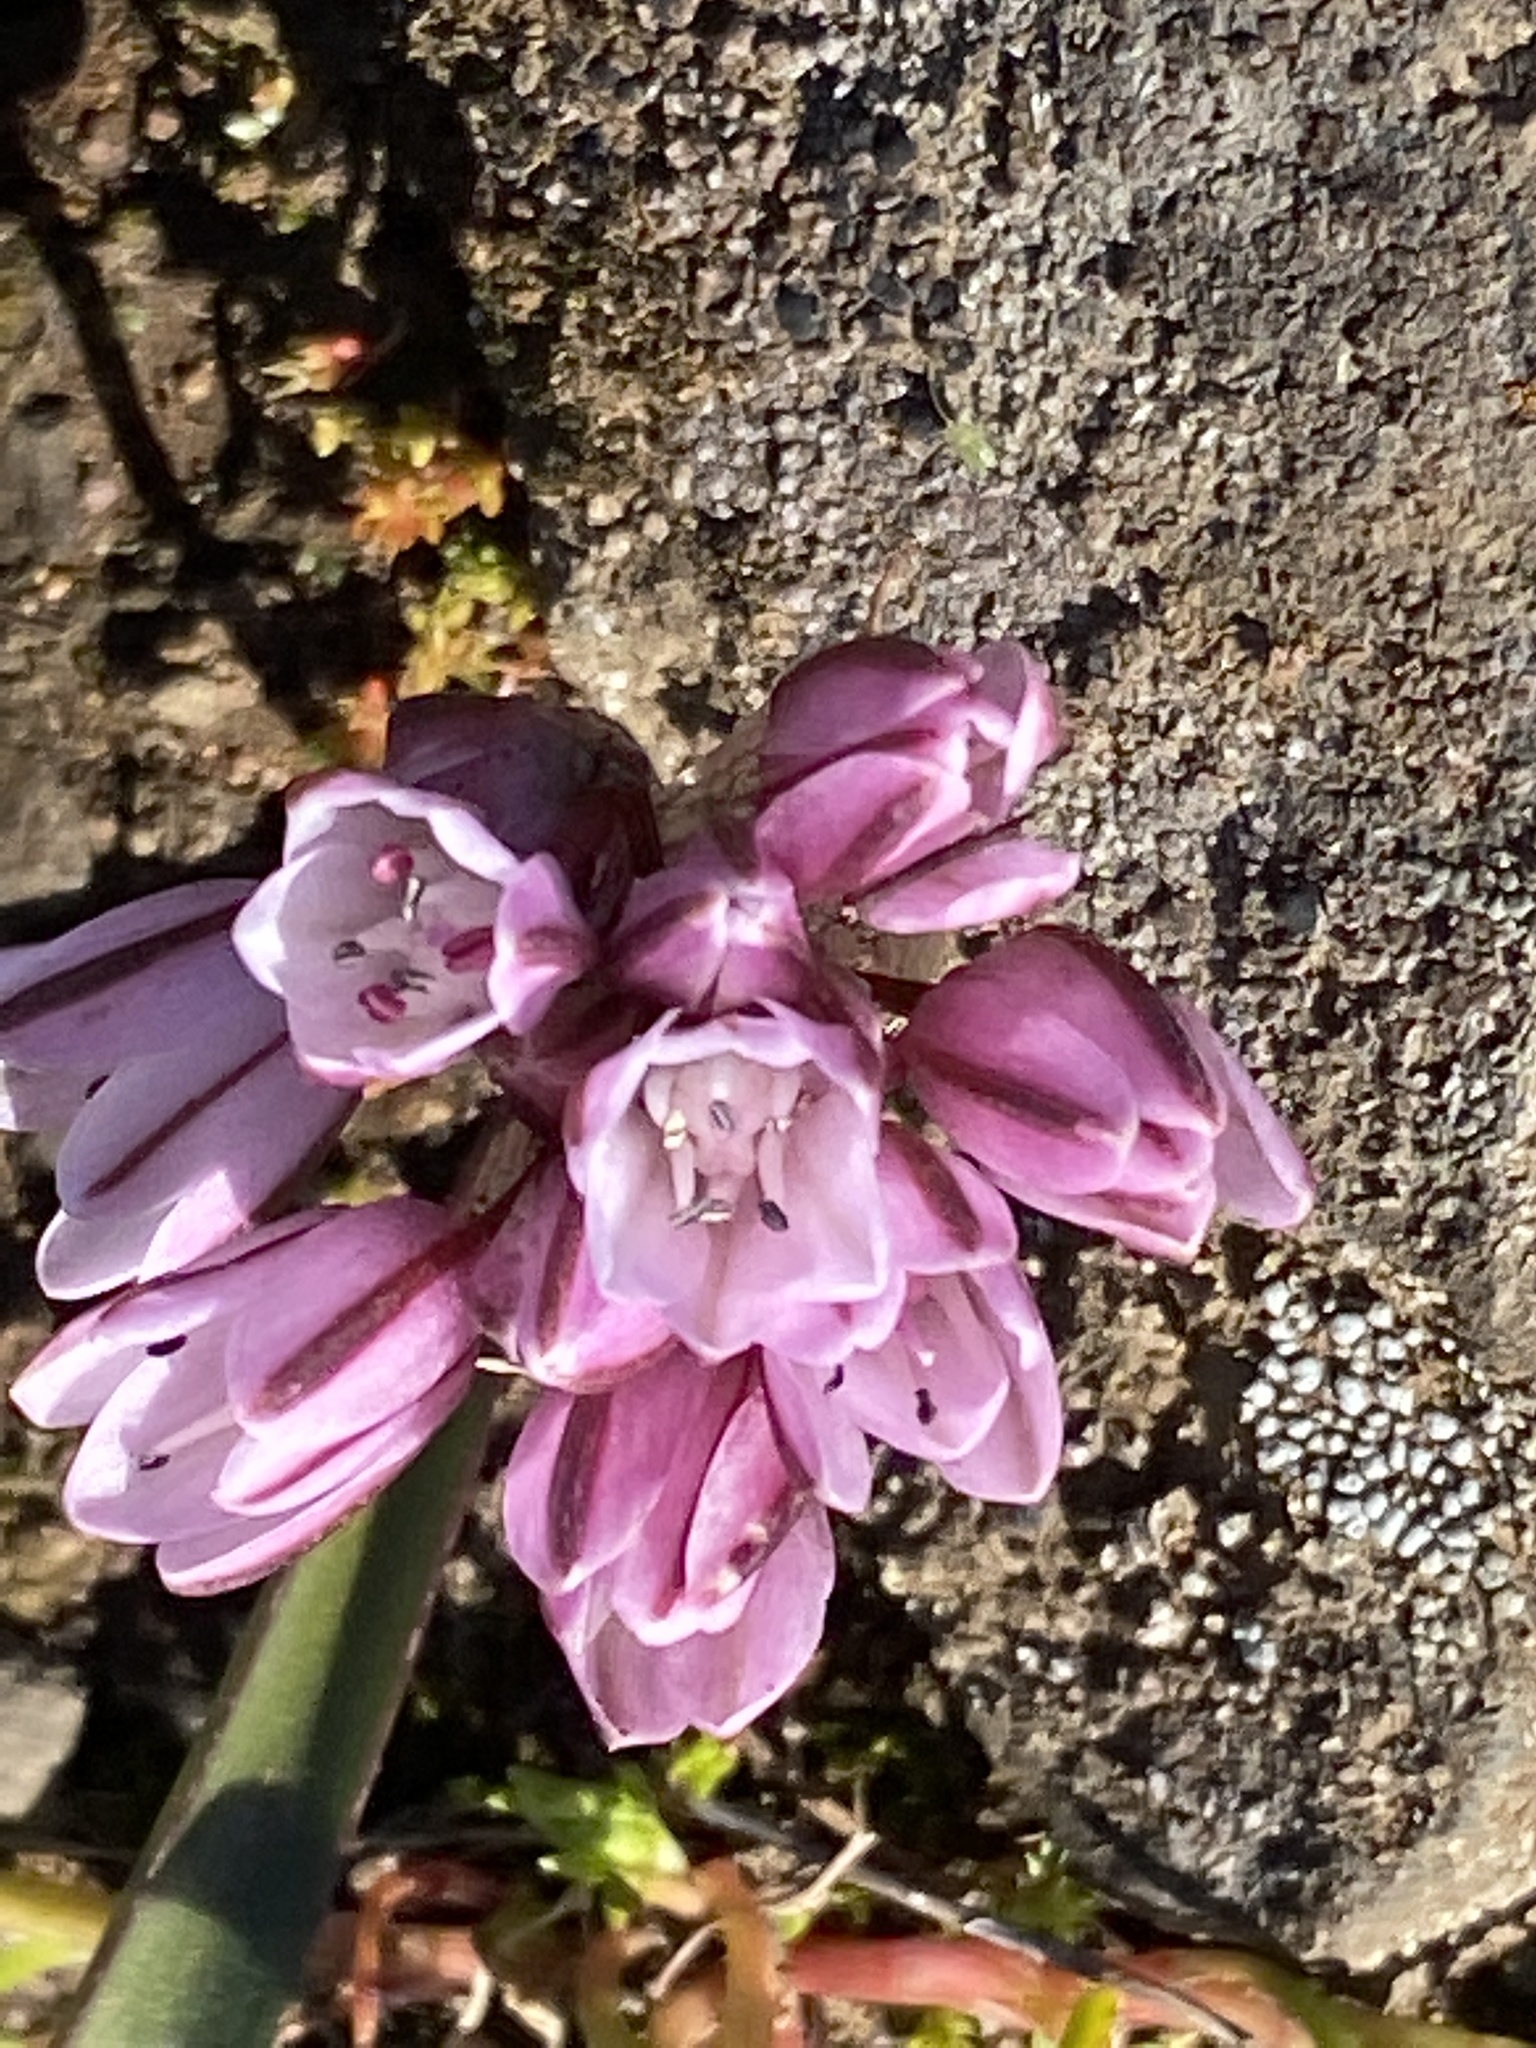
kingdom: Plantae
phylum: Tracheophyta
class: Liliopsida
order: Asparagales
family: Amaryllidaceae
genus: Allium
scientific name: Allium cratericola
